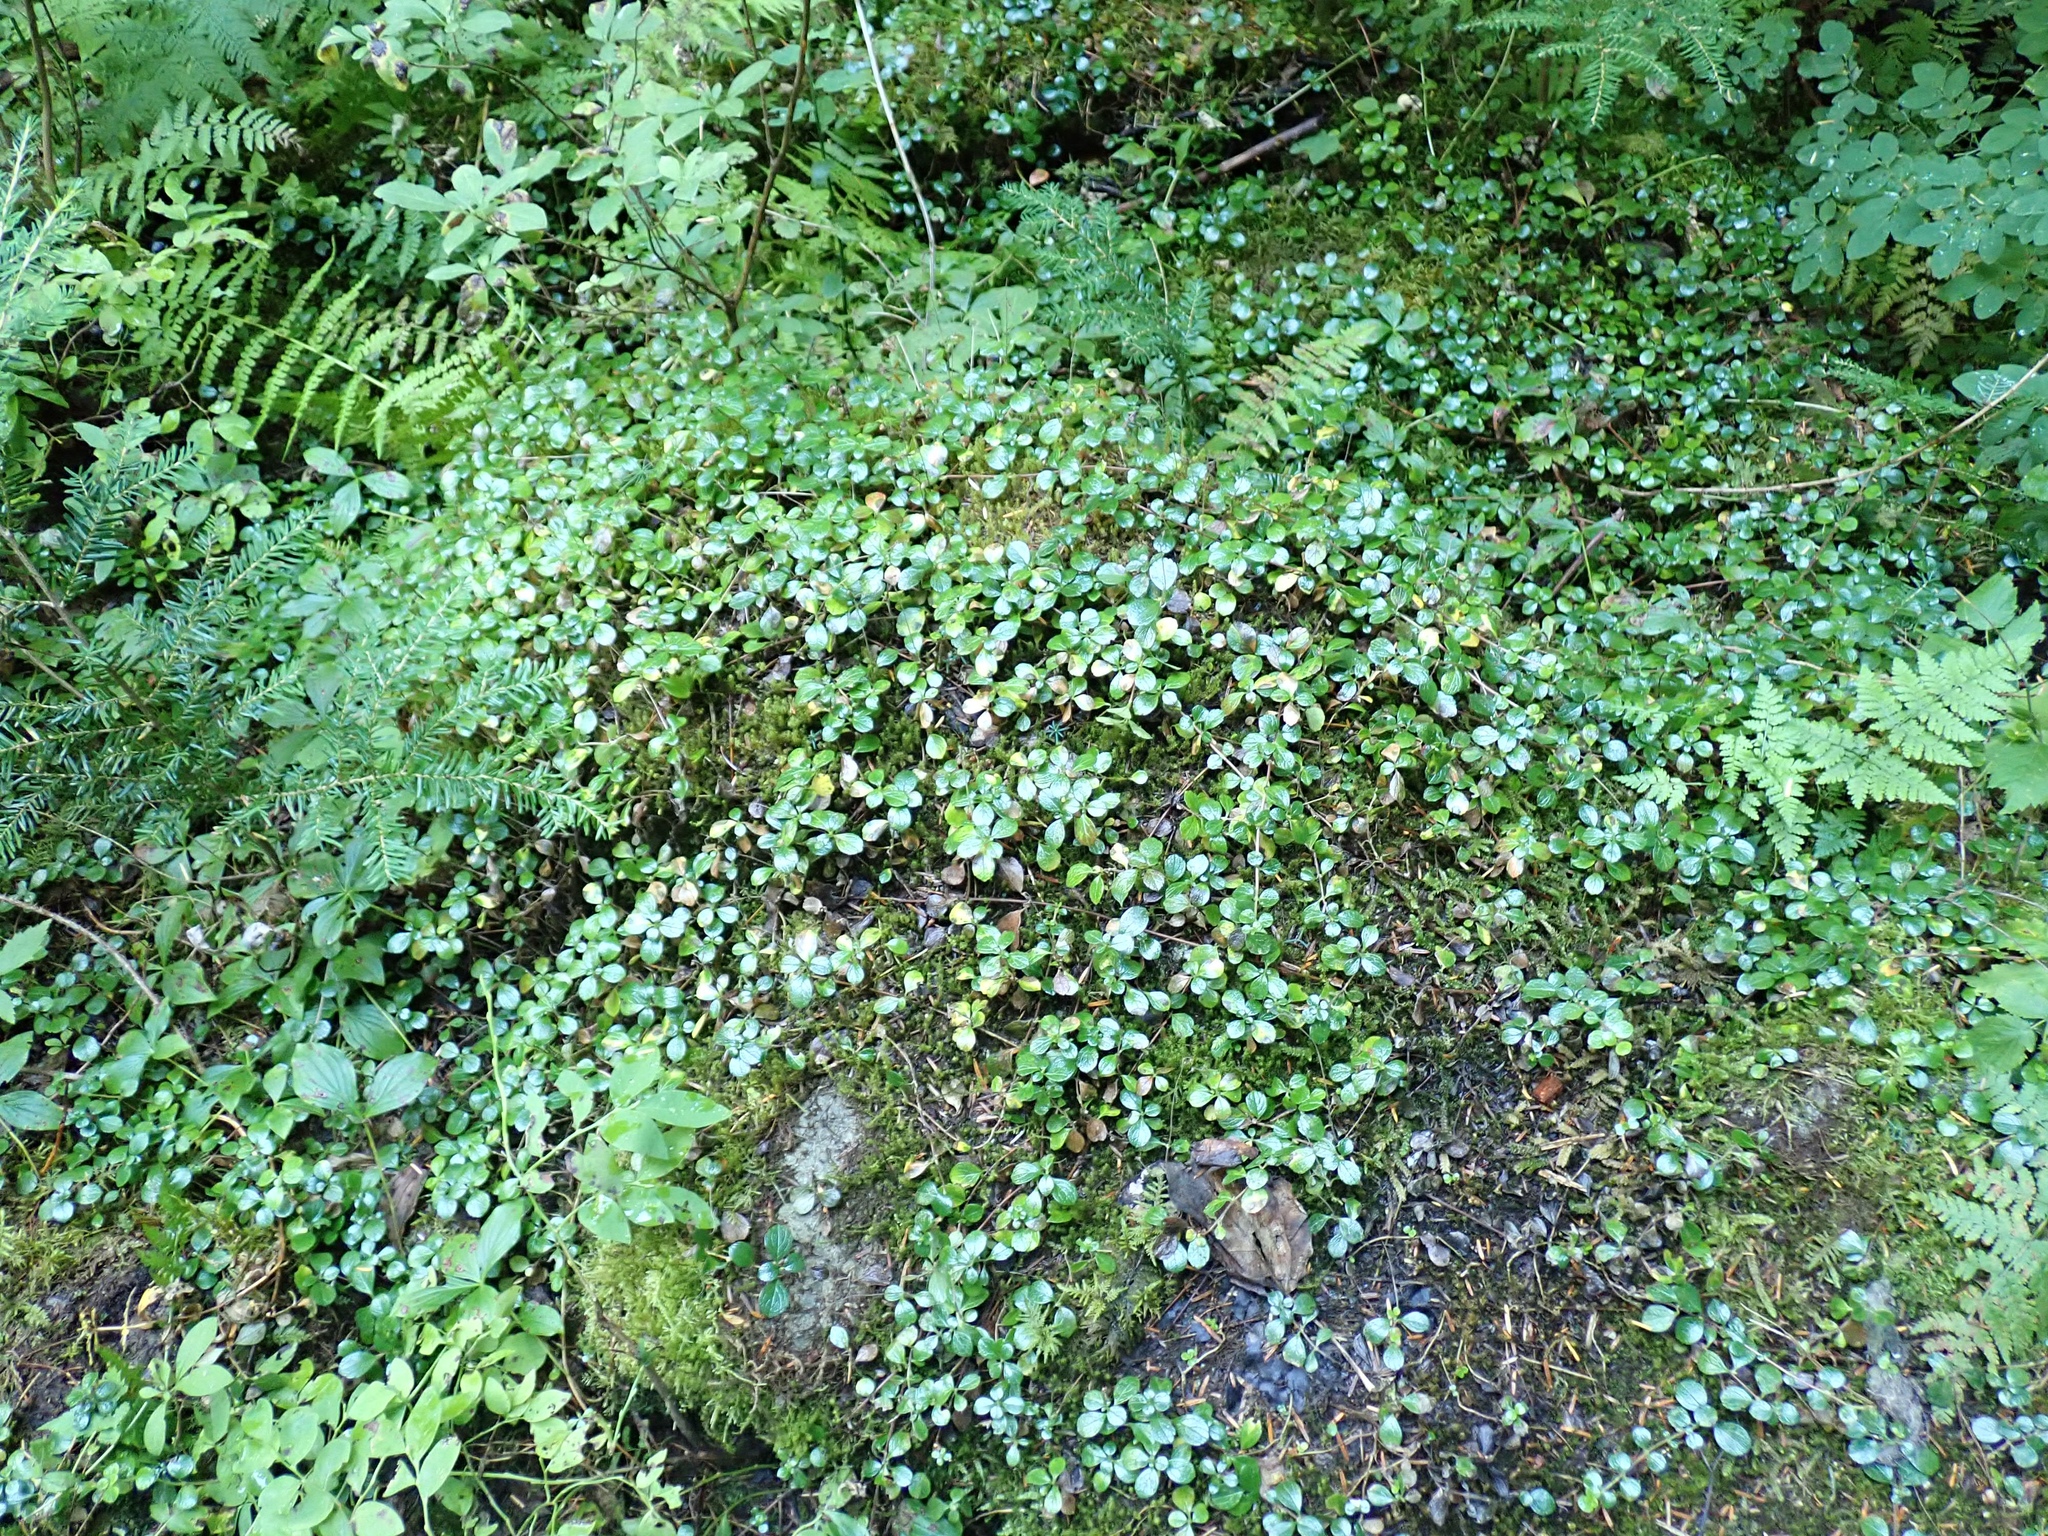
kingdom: Plantae
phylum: Tracheophyta
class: Magnoliopsida
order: Dipsacales
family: Caprifoliaceae
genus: Linnaea
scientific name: Linnaea borealis
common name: Twinflower
